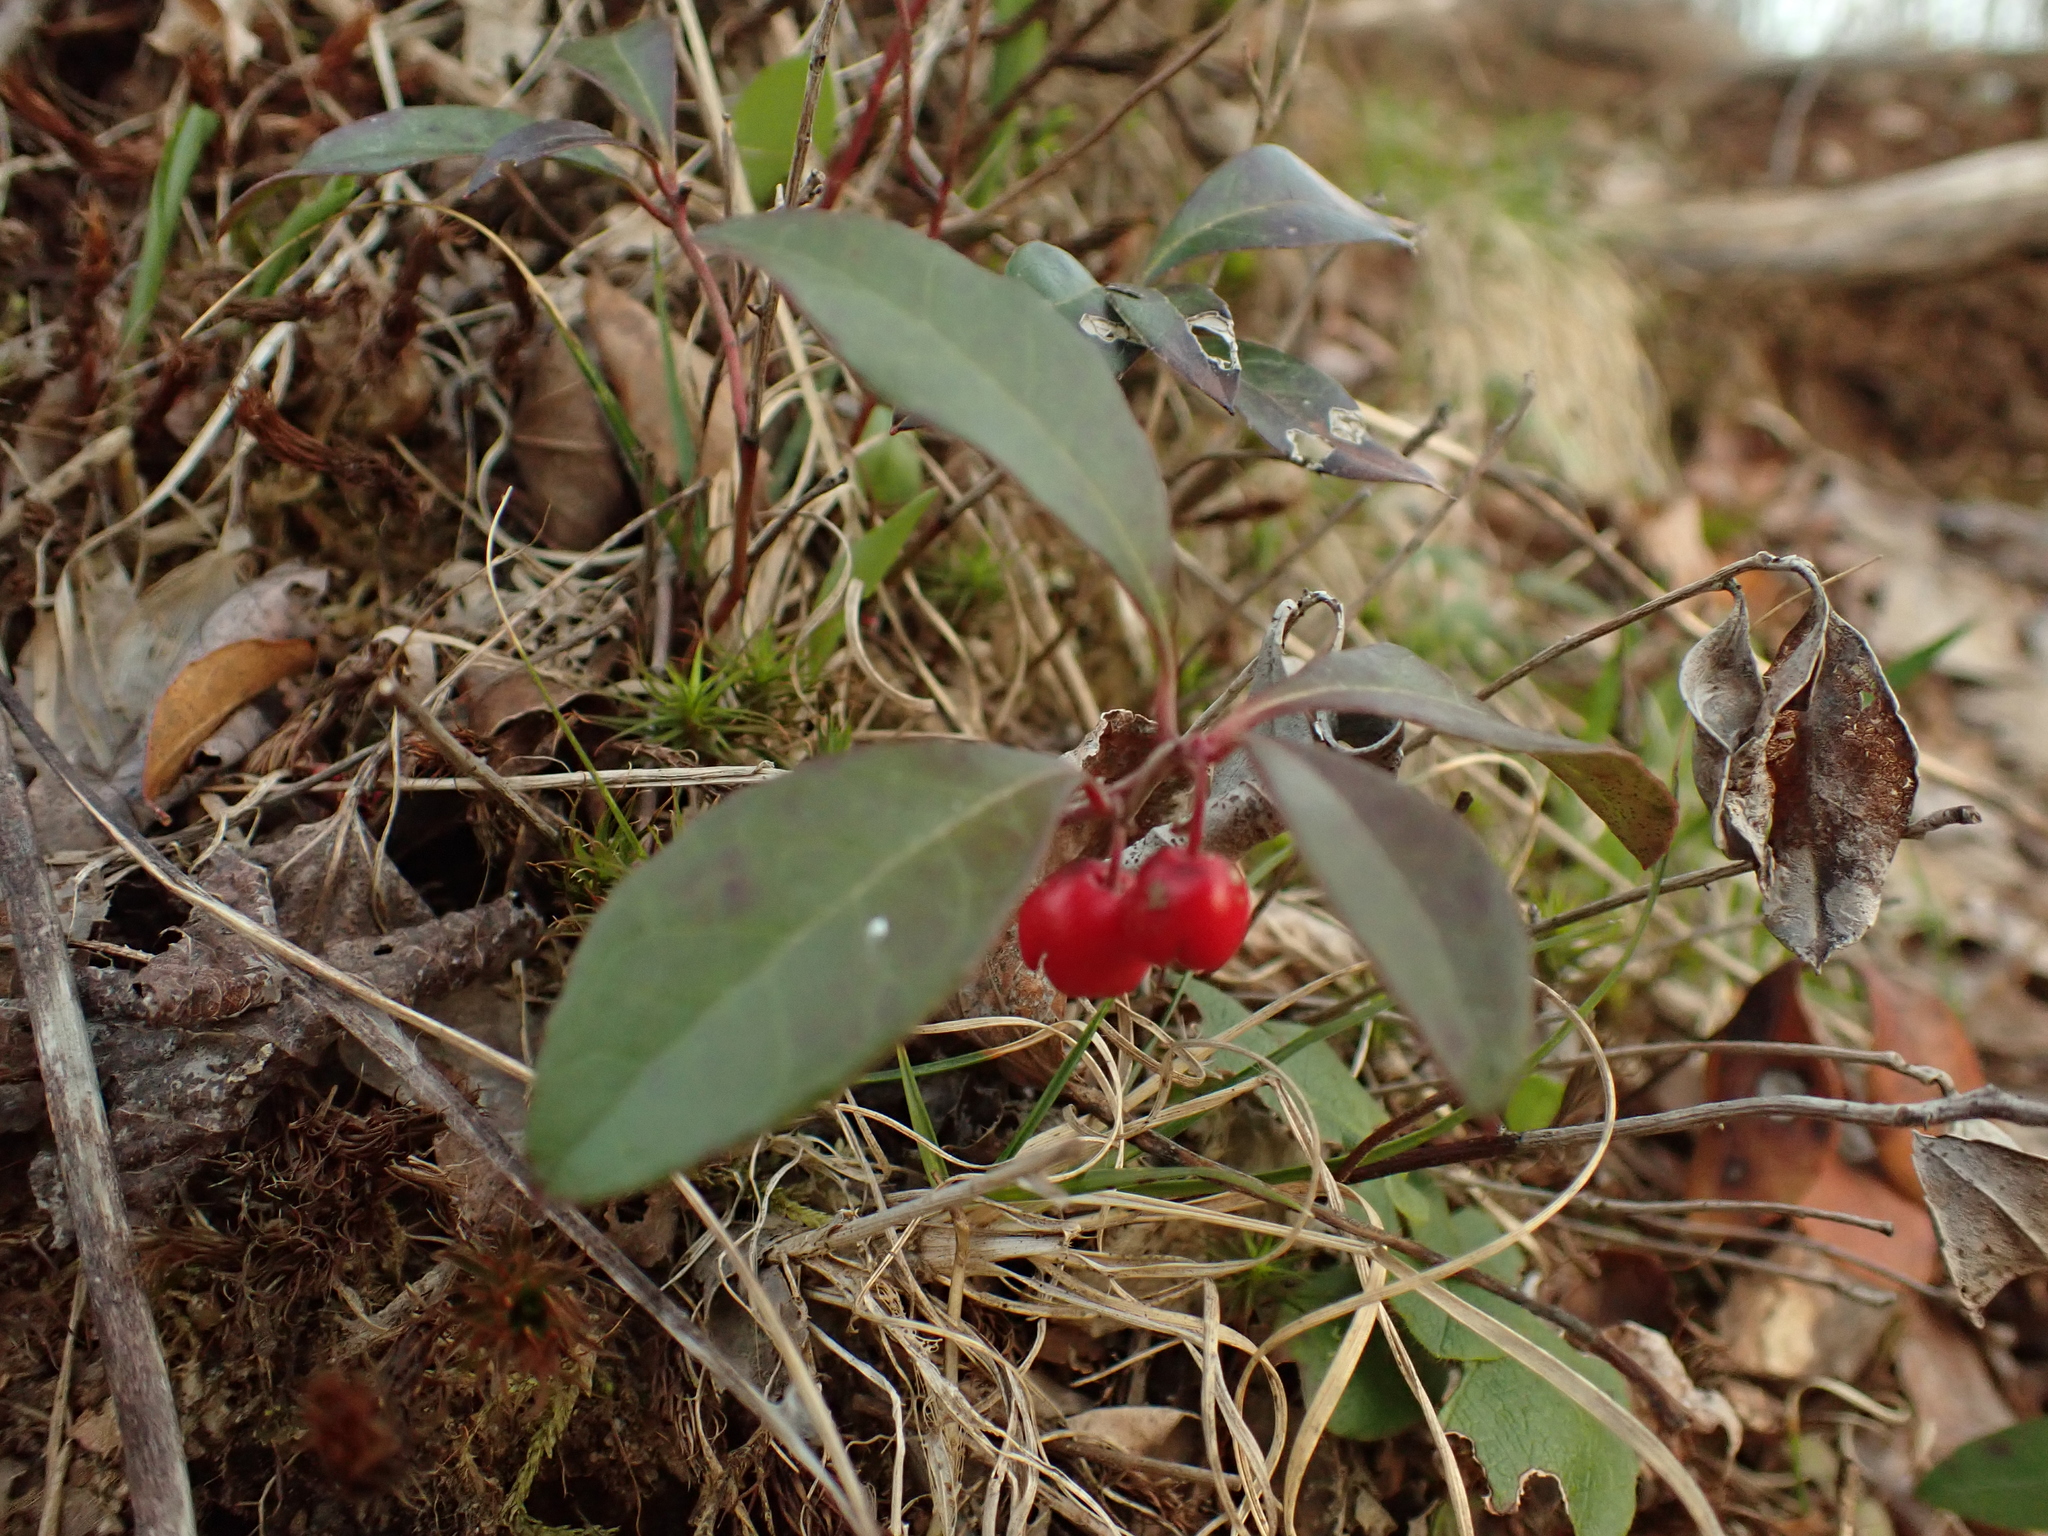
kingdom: Plantae
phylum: Tracheophyta
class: Magnoliopsida
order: Ericales
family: Ericaceae
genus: Gaultheria
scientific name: Gaultheria procumbens
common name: Checkerberry
